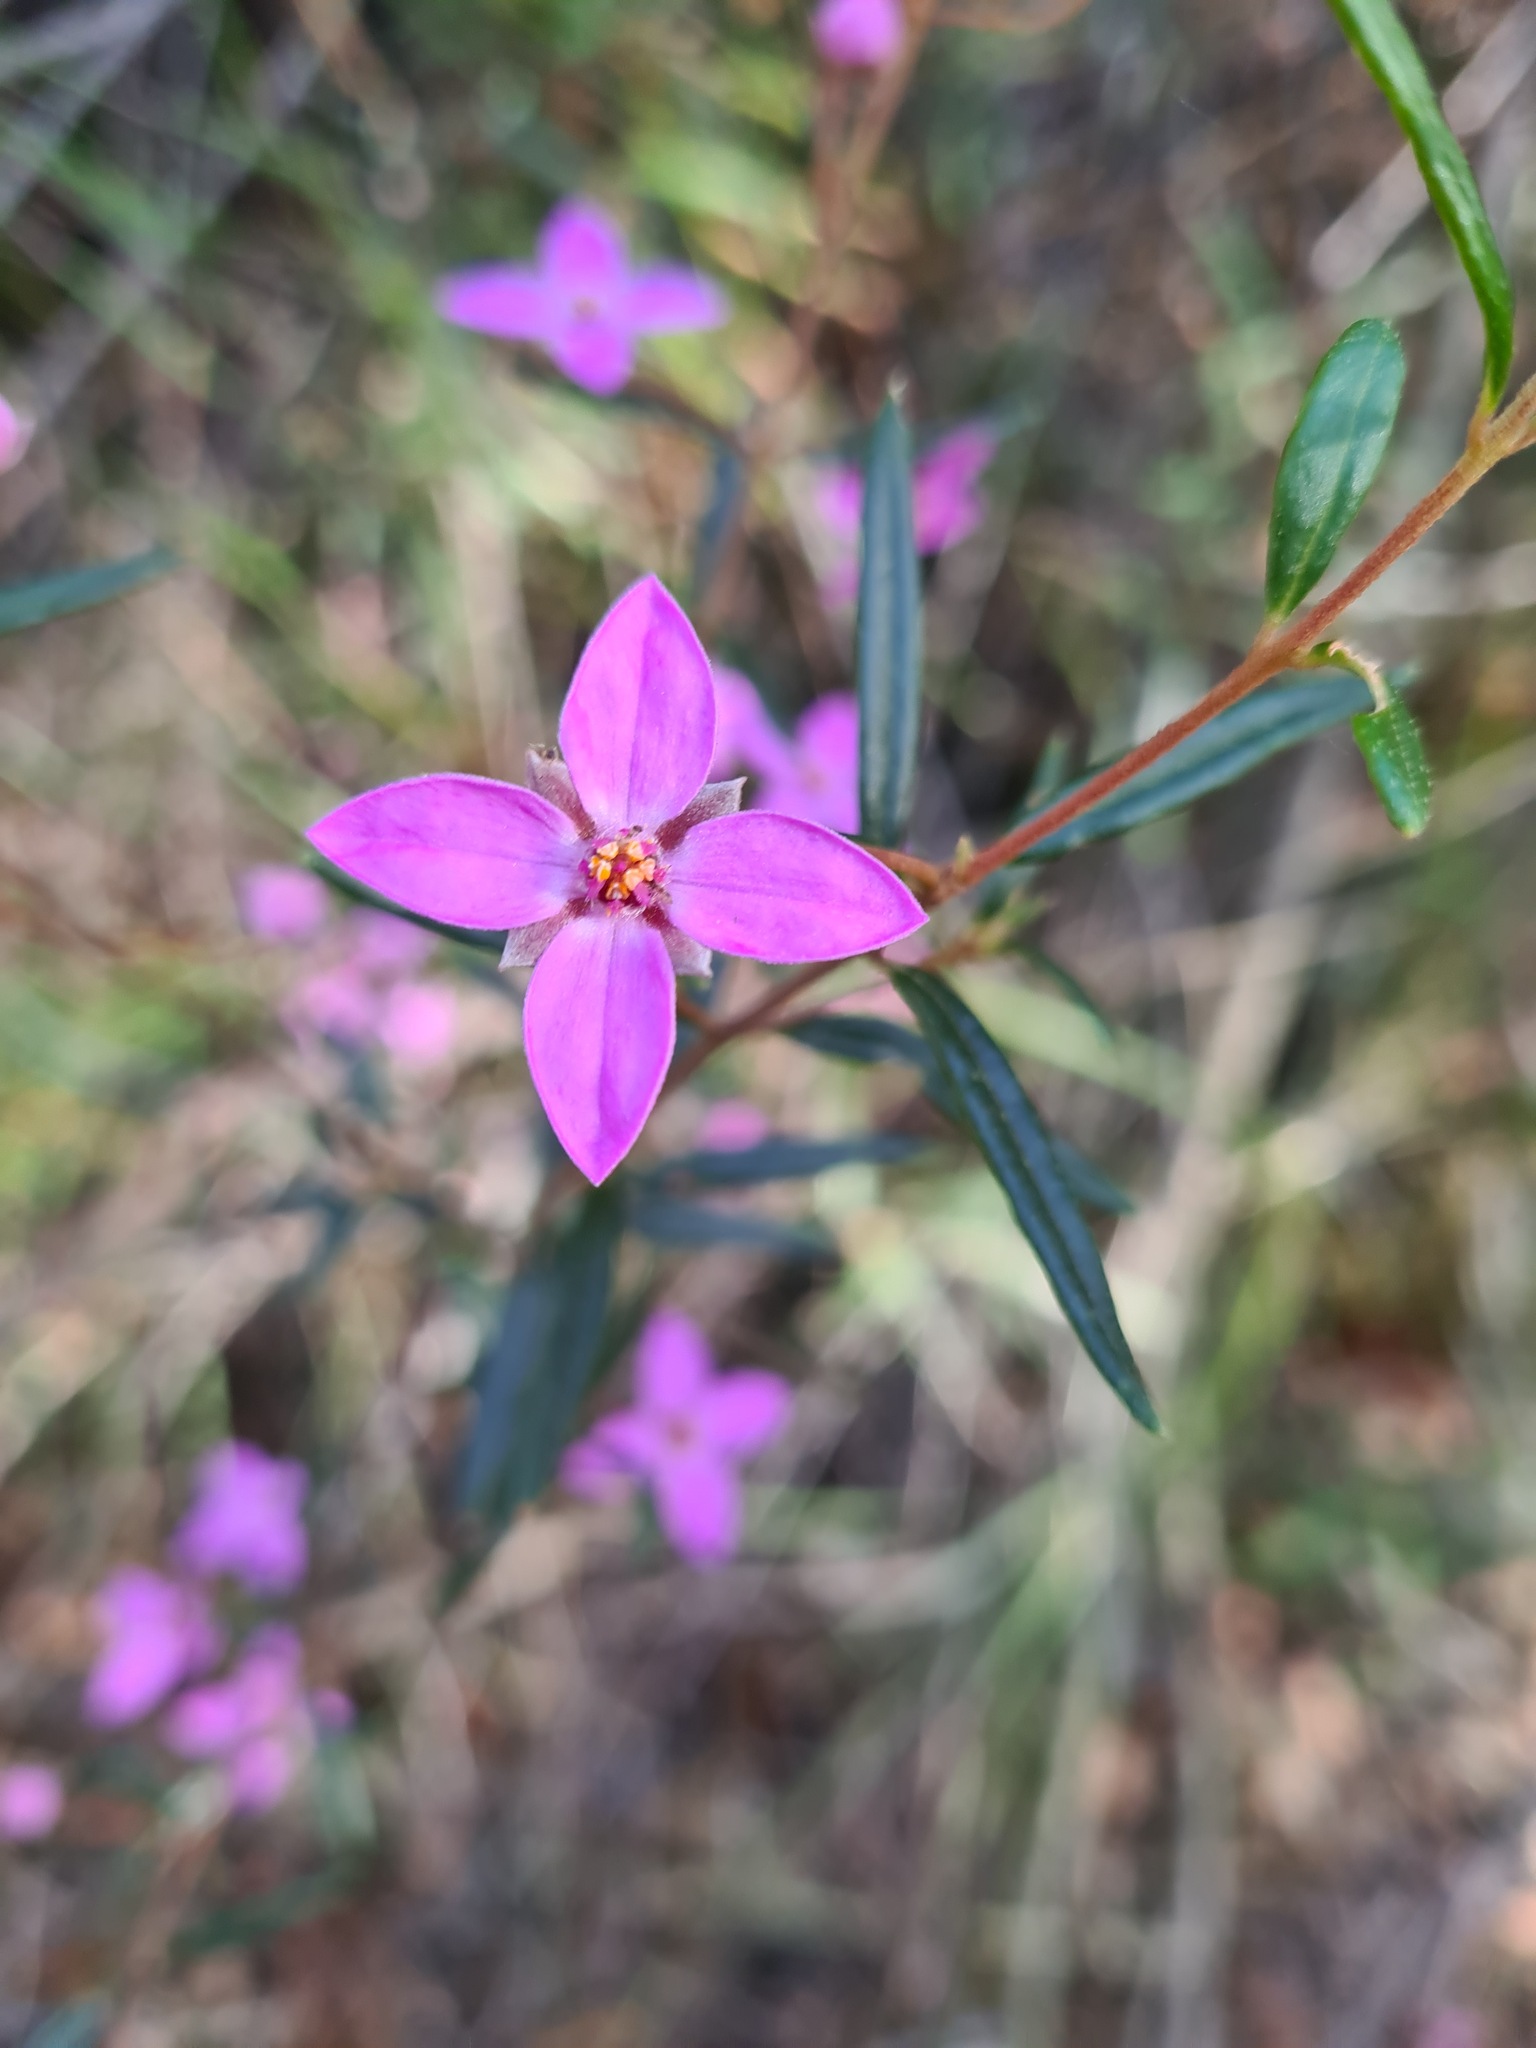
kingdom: Plantae
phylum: Tracheophyta
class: Magnoliopsida
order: Sapindales
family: Rutaceae
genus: Boronia
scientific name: Boronia ledifolia
